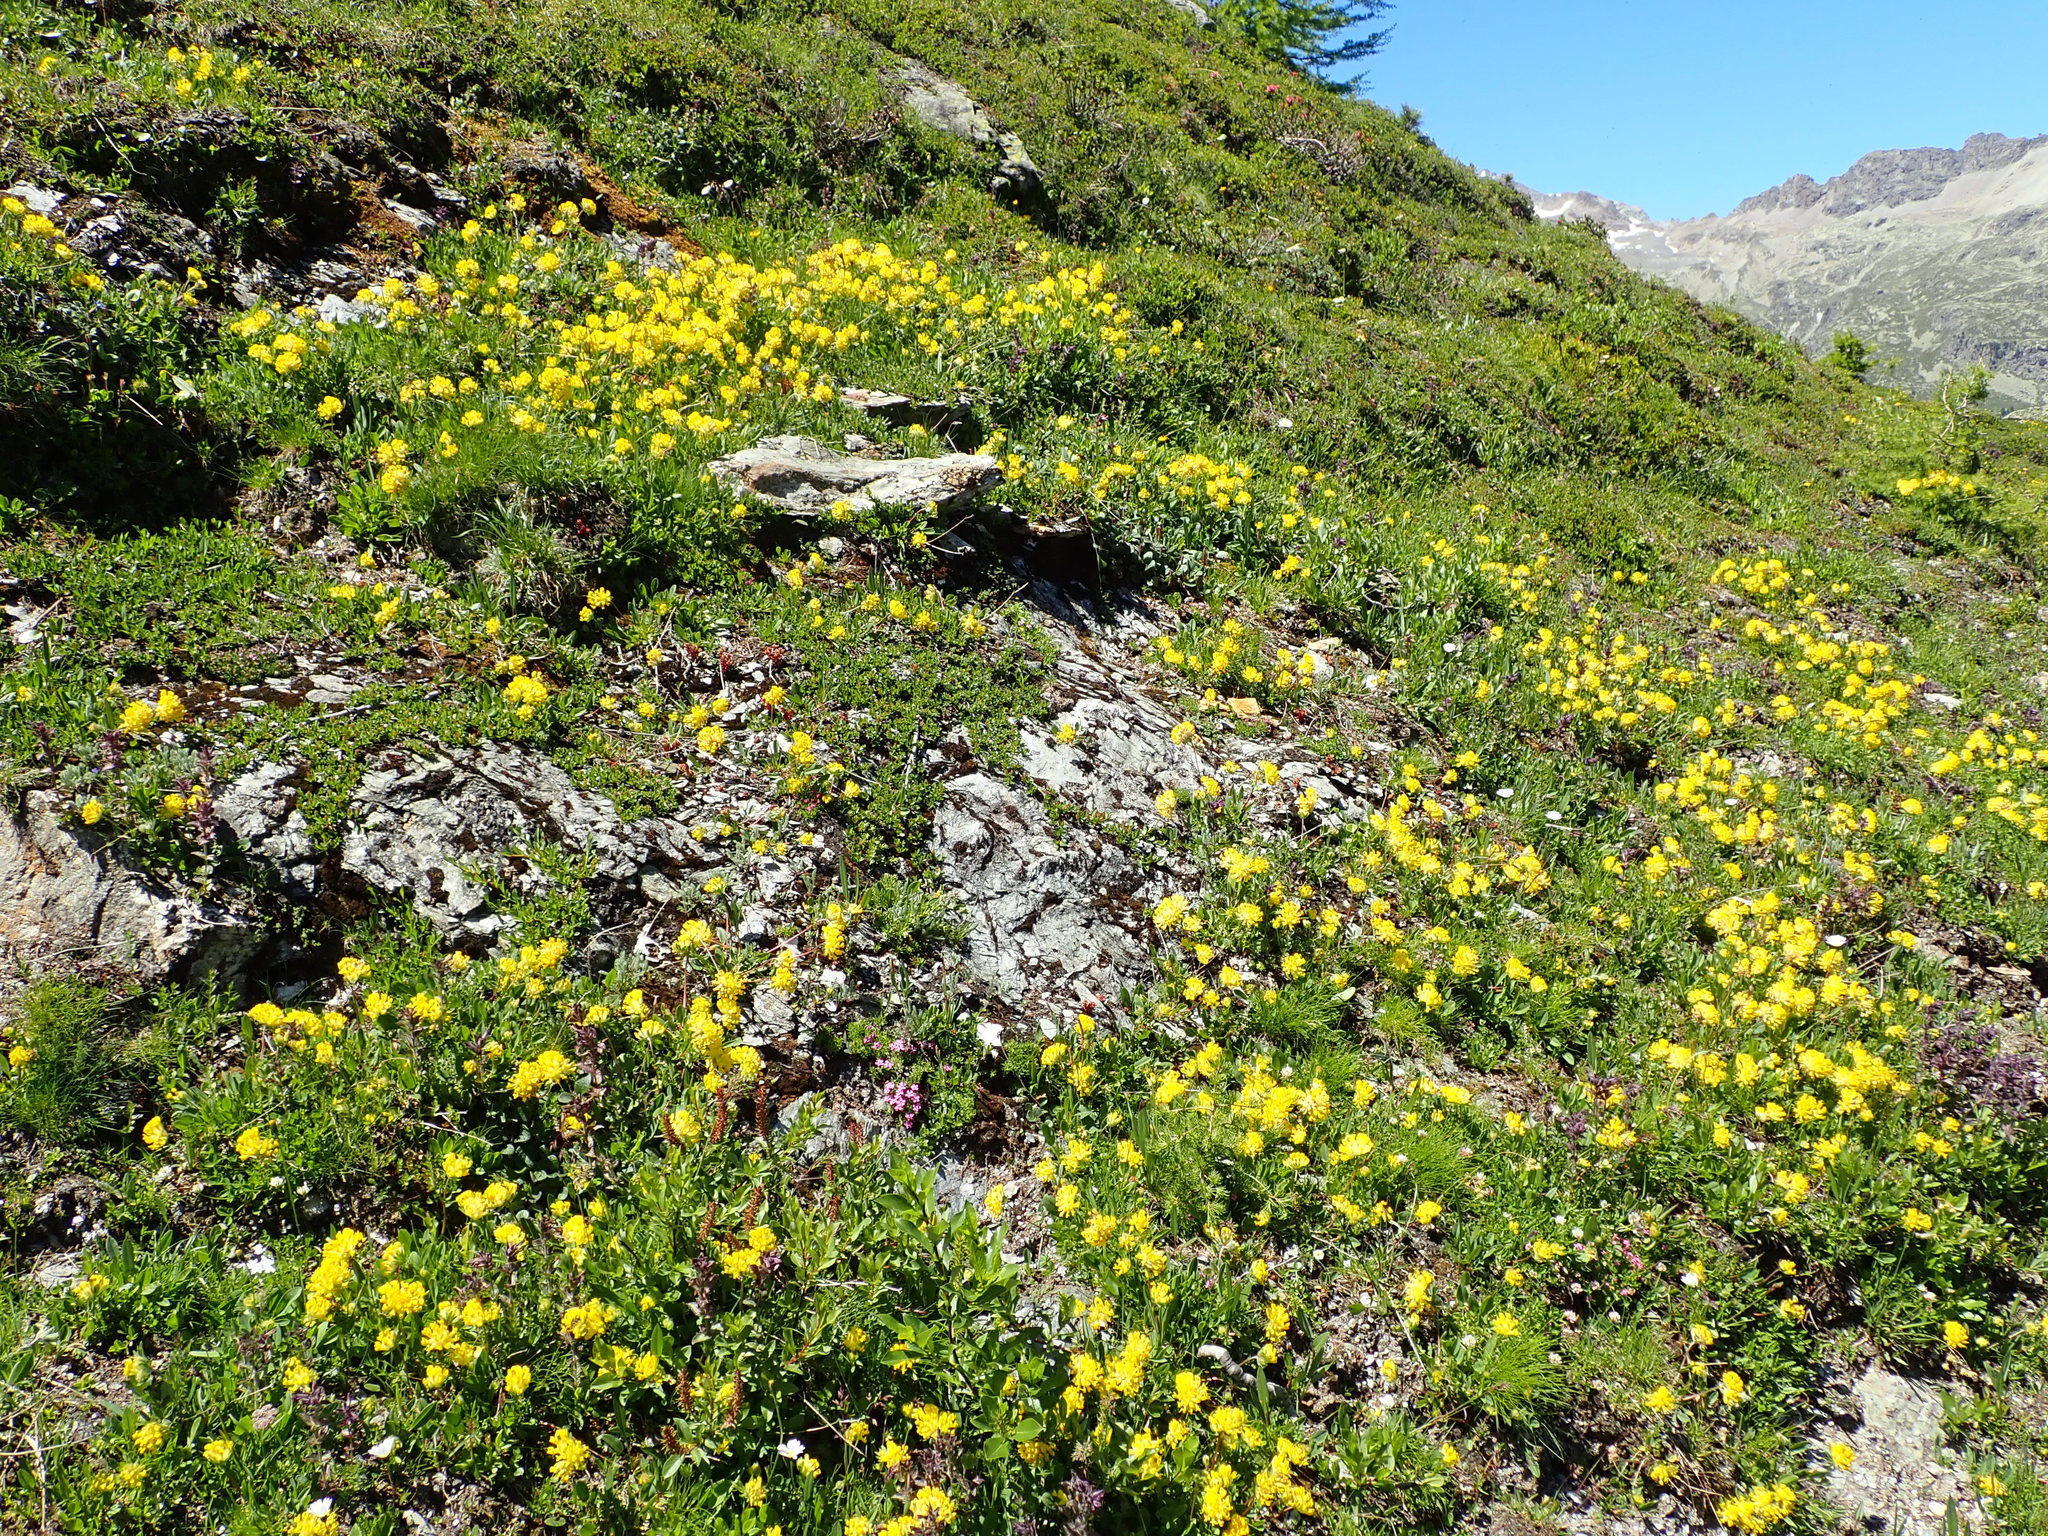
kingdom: Plantae
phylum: Tracheophyta
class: Magnoliopsida
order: Fabales
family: Fabaceae
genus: Anthyllis
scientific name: Anthyllis vulneraria
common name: Kidney vetch
